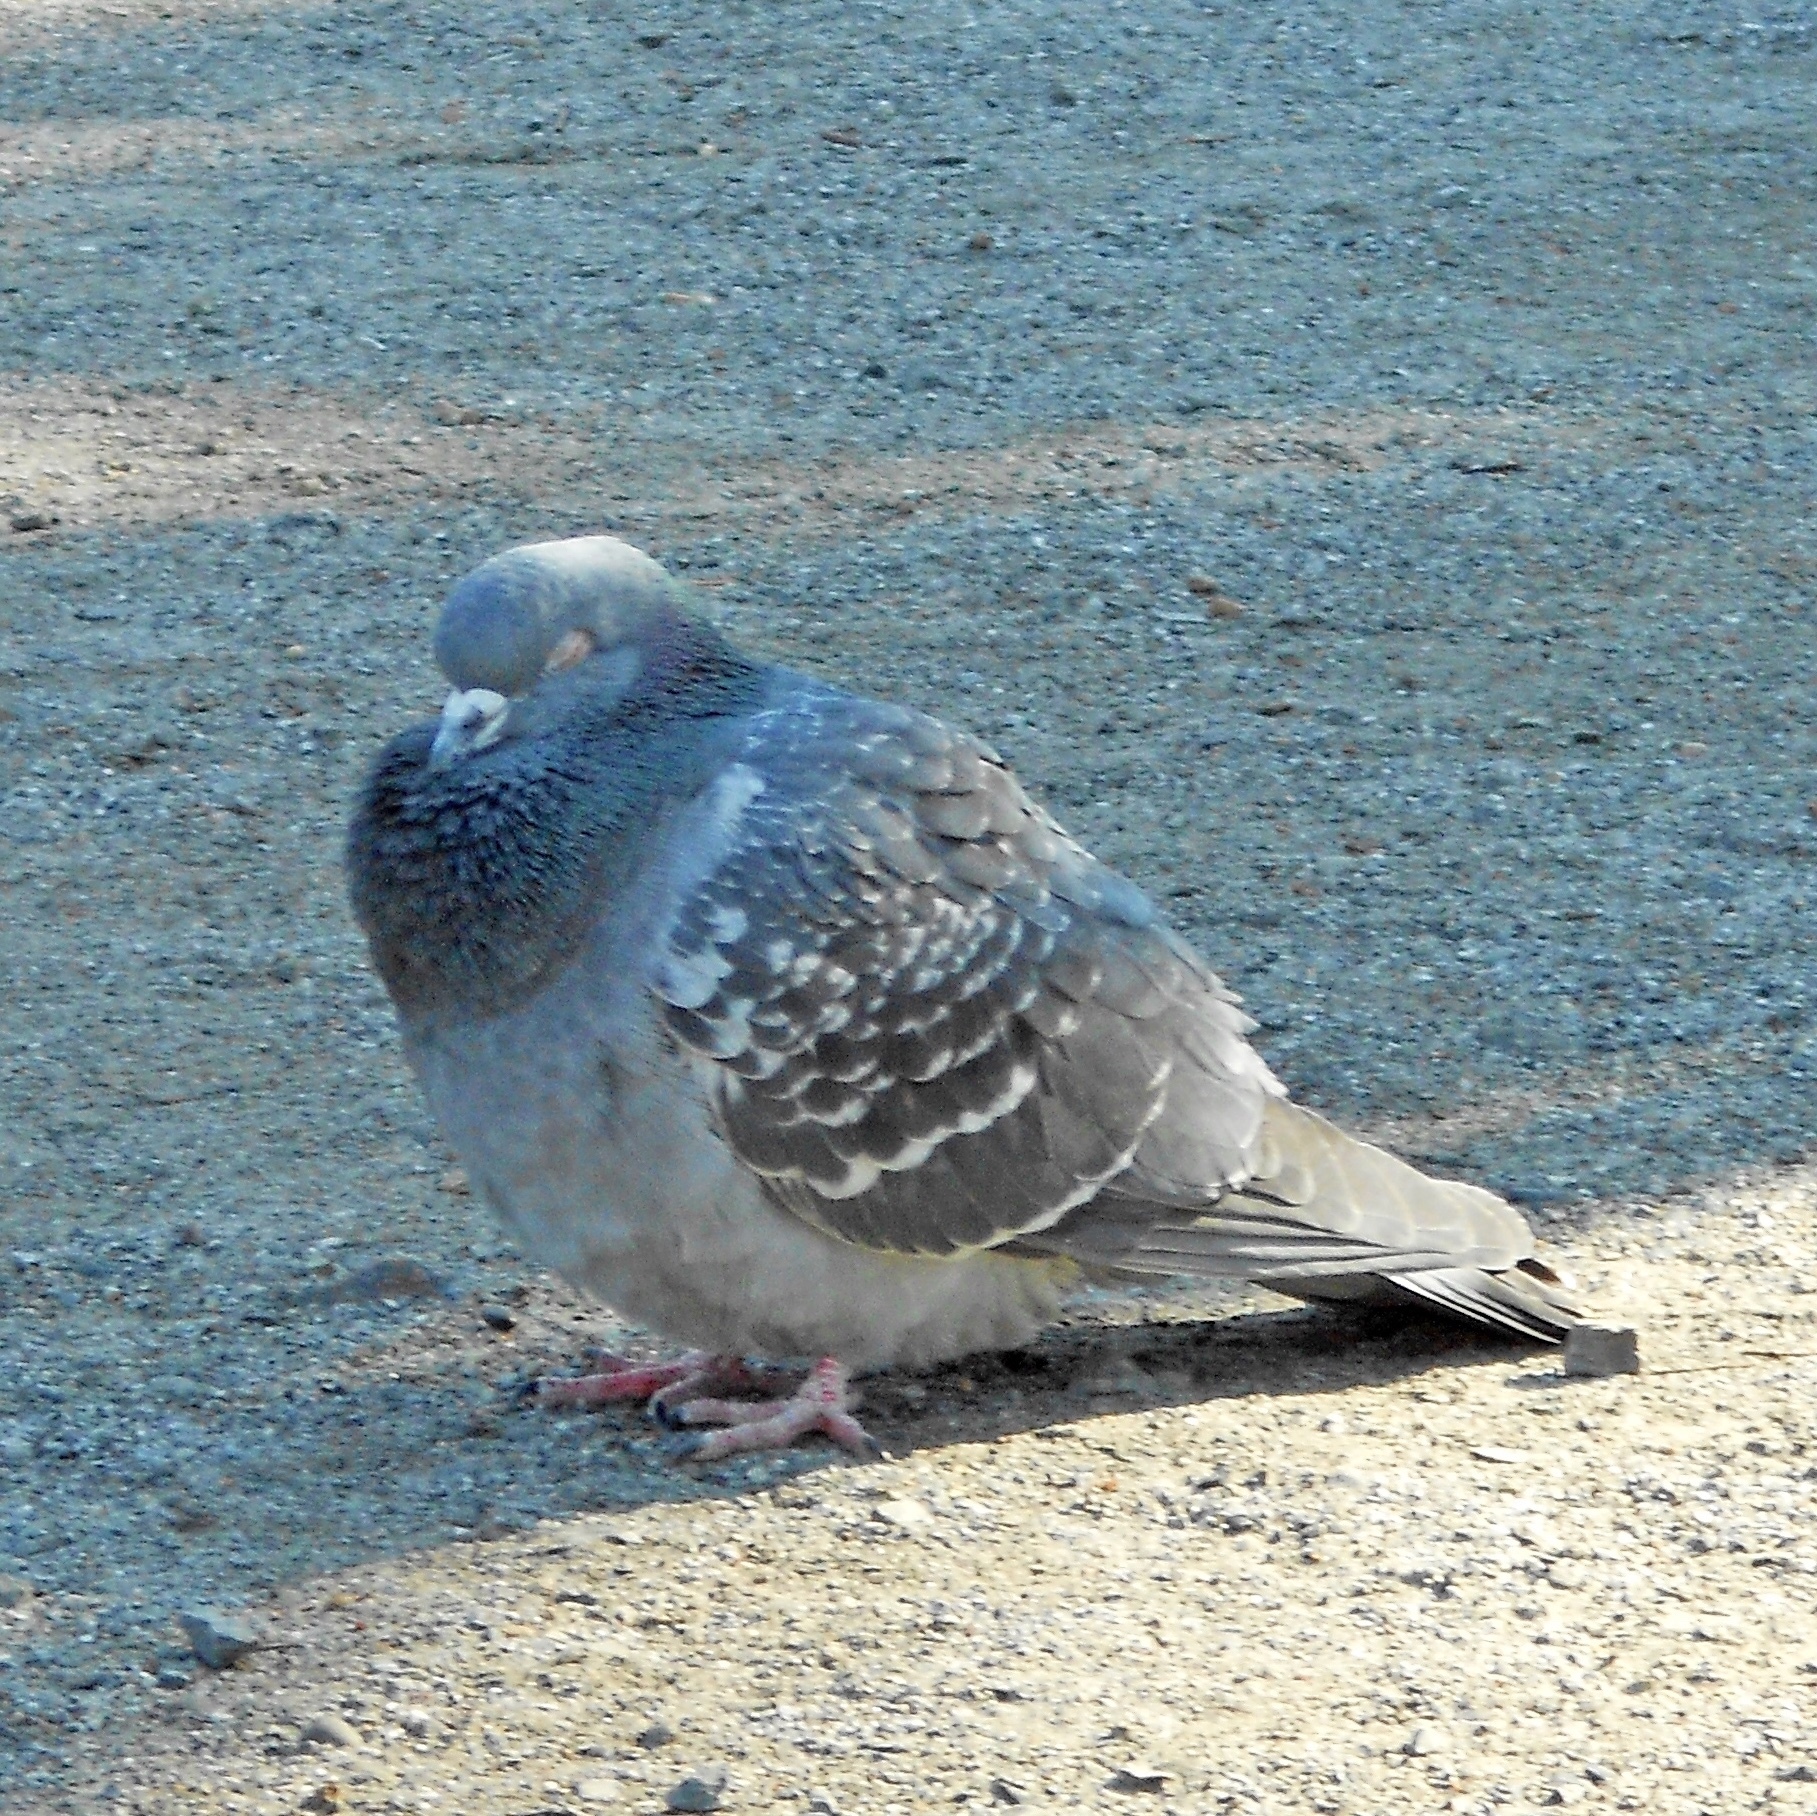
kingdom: Animalia
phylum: Chordata
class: Aves
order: Columbiformes
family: Columbidae
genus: Columba
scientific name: Columba livia
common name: Rock pigeon
